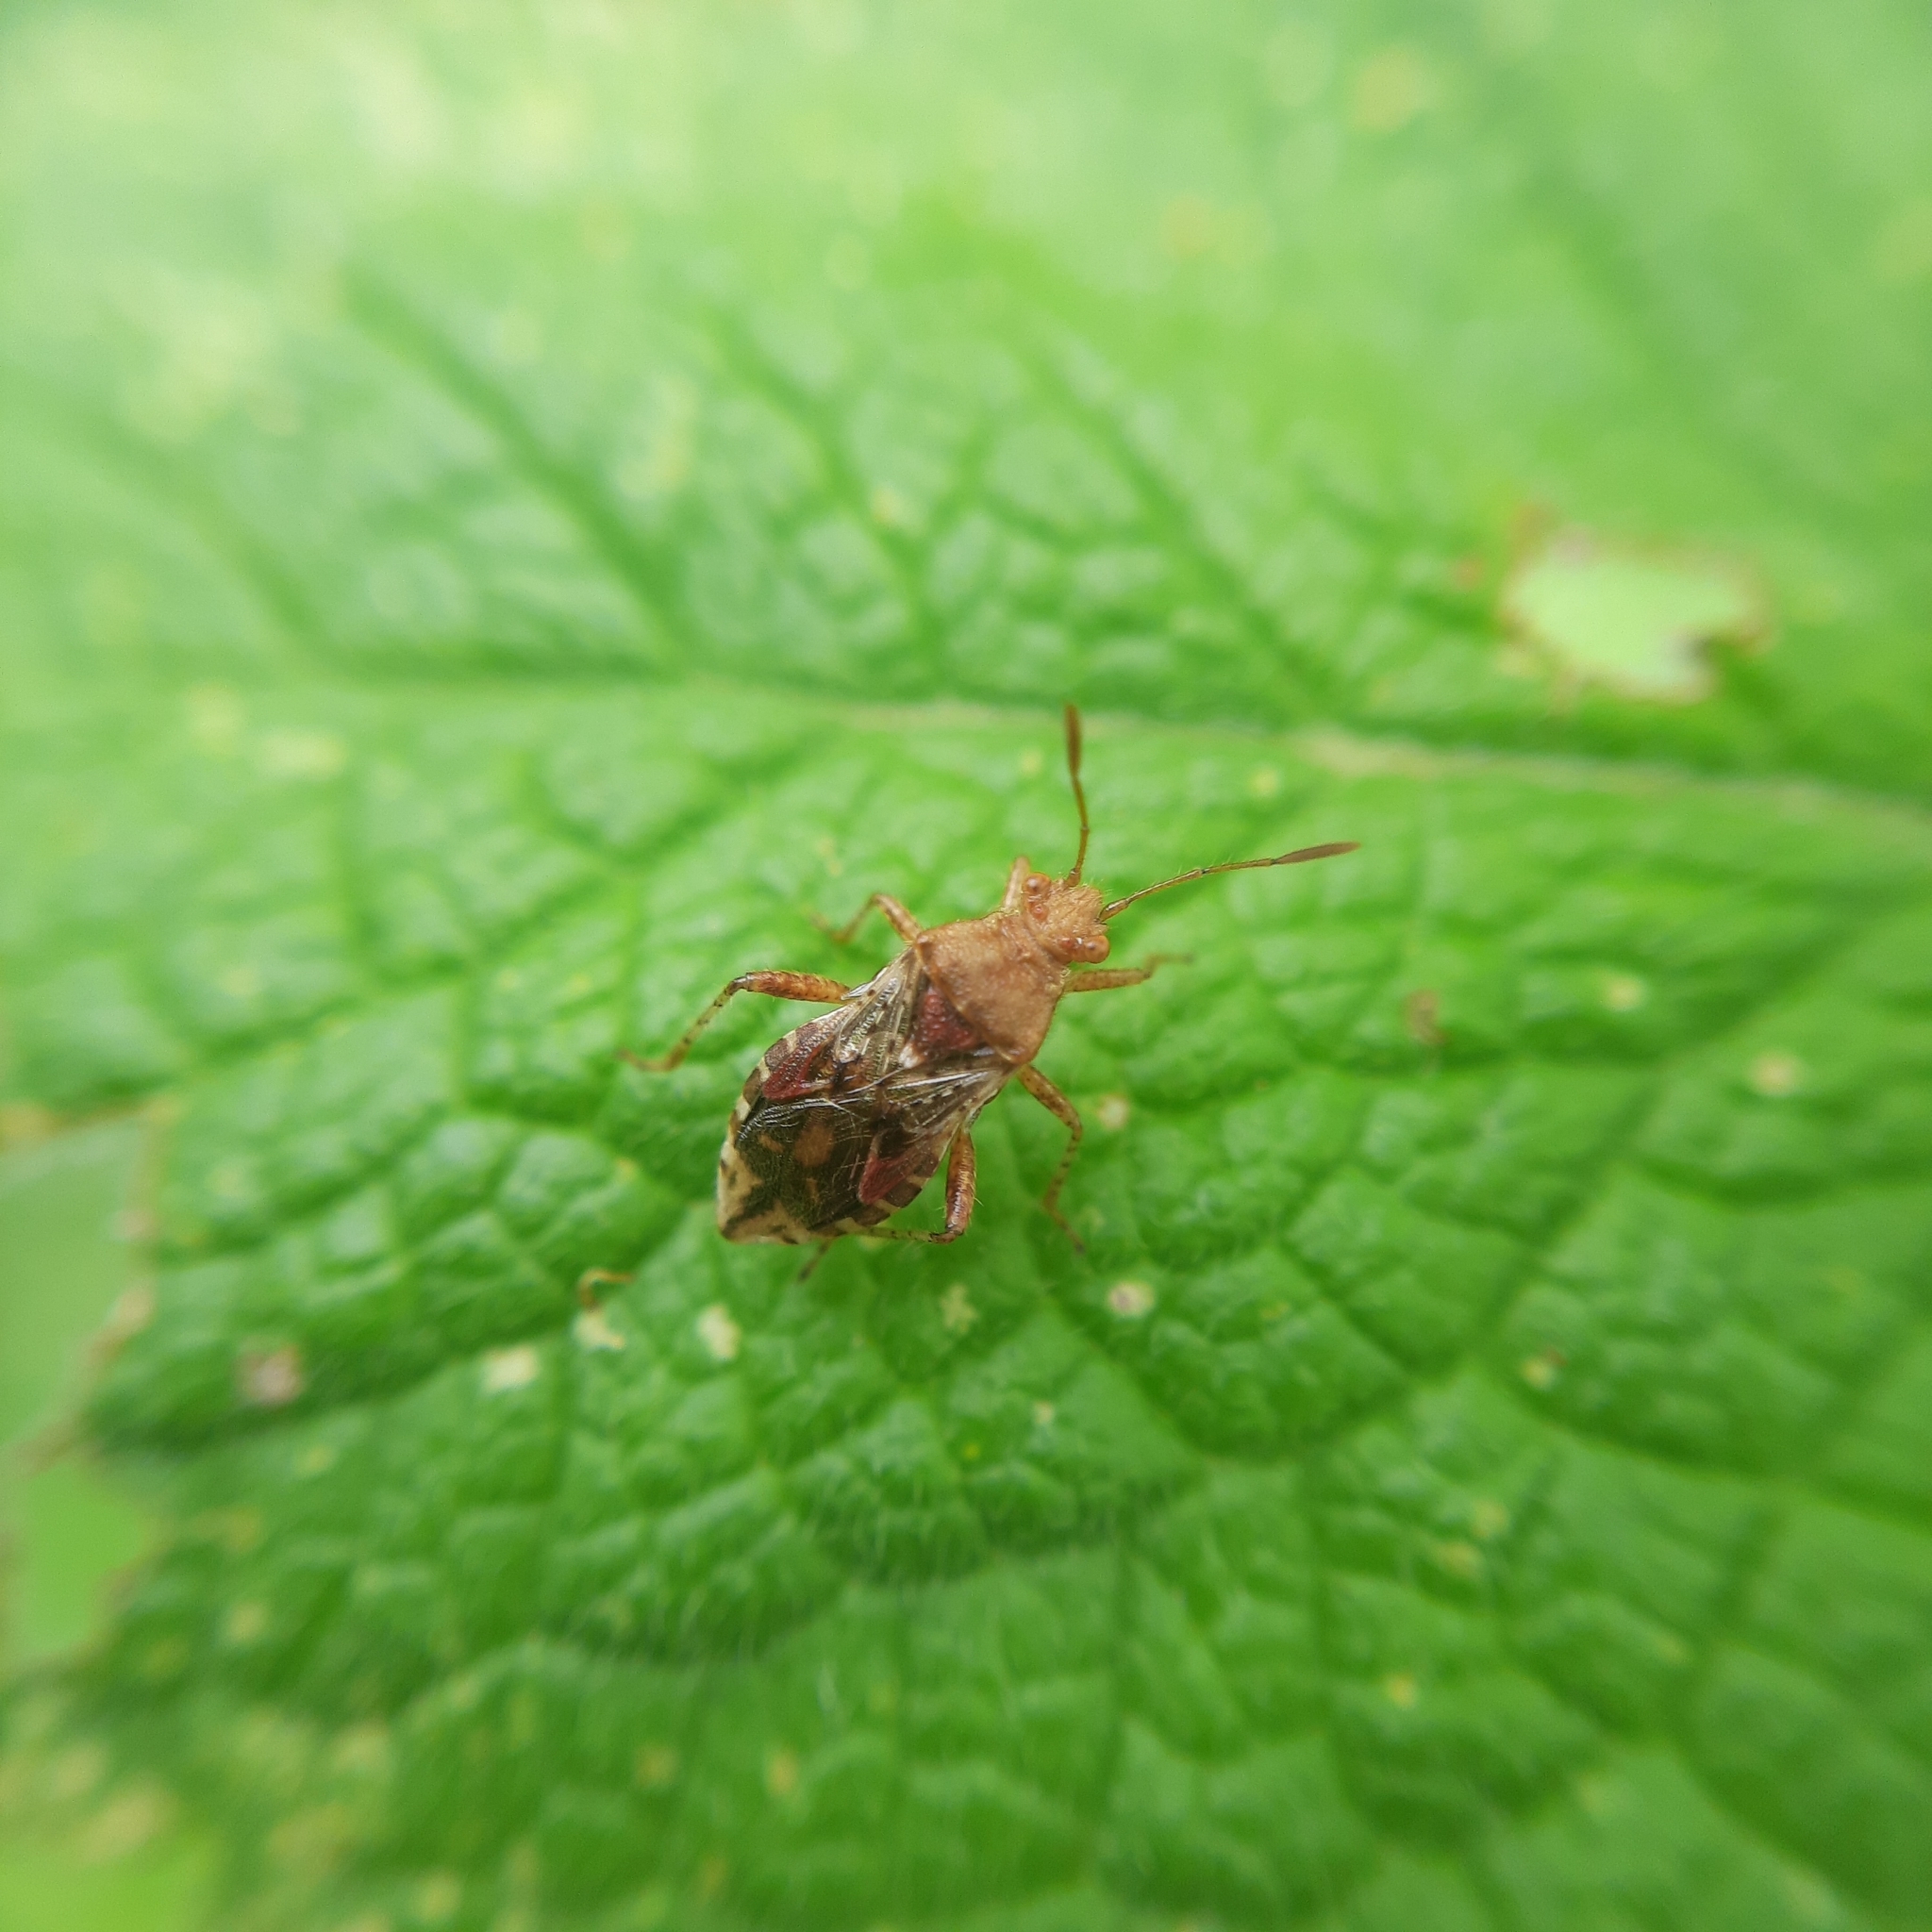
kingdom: Animalia
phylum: Arthropoda
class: Insecta
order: Hemiptera
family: Rhopalidae
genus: Rhopalus
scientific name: Rhopalus subrufus
